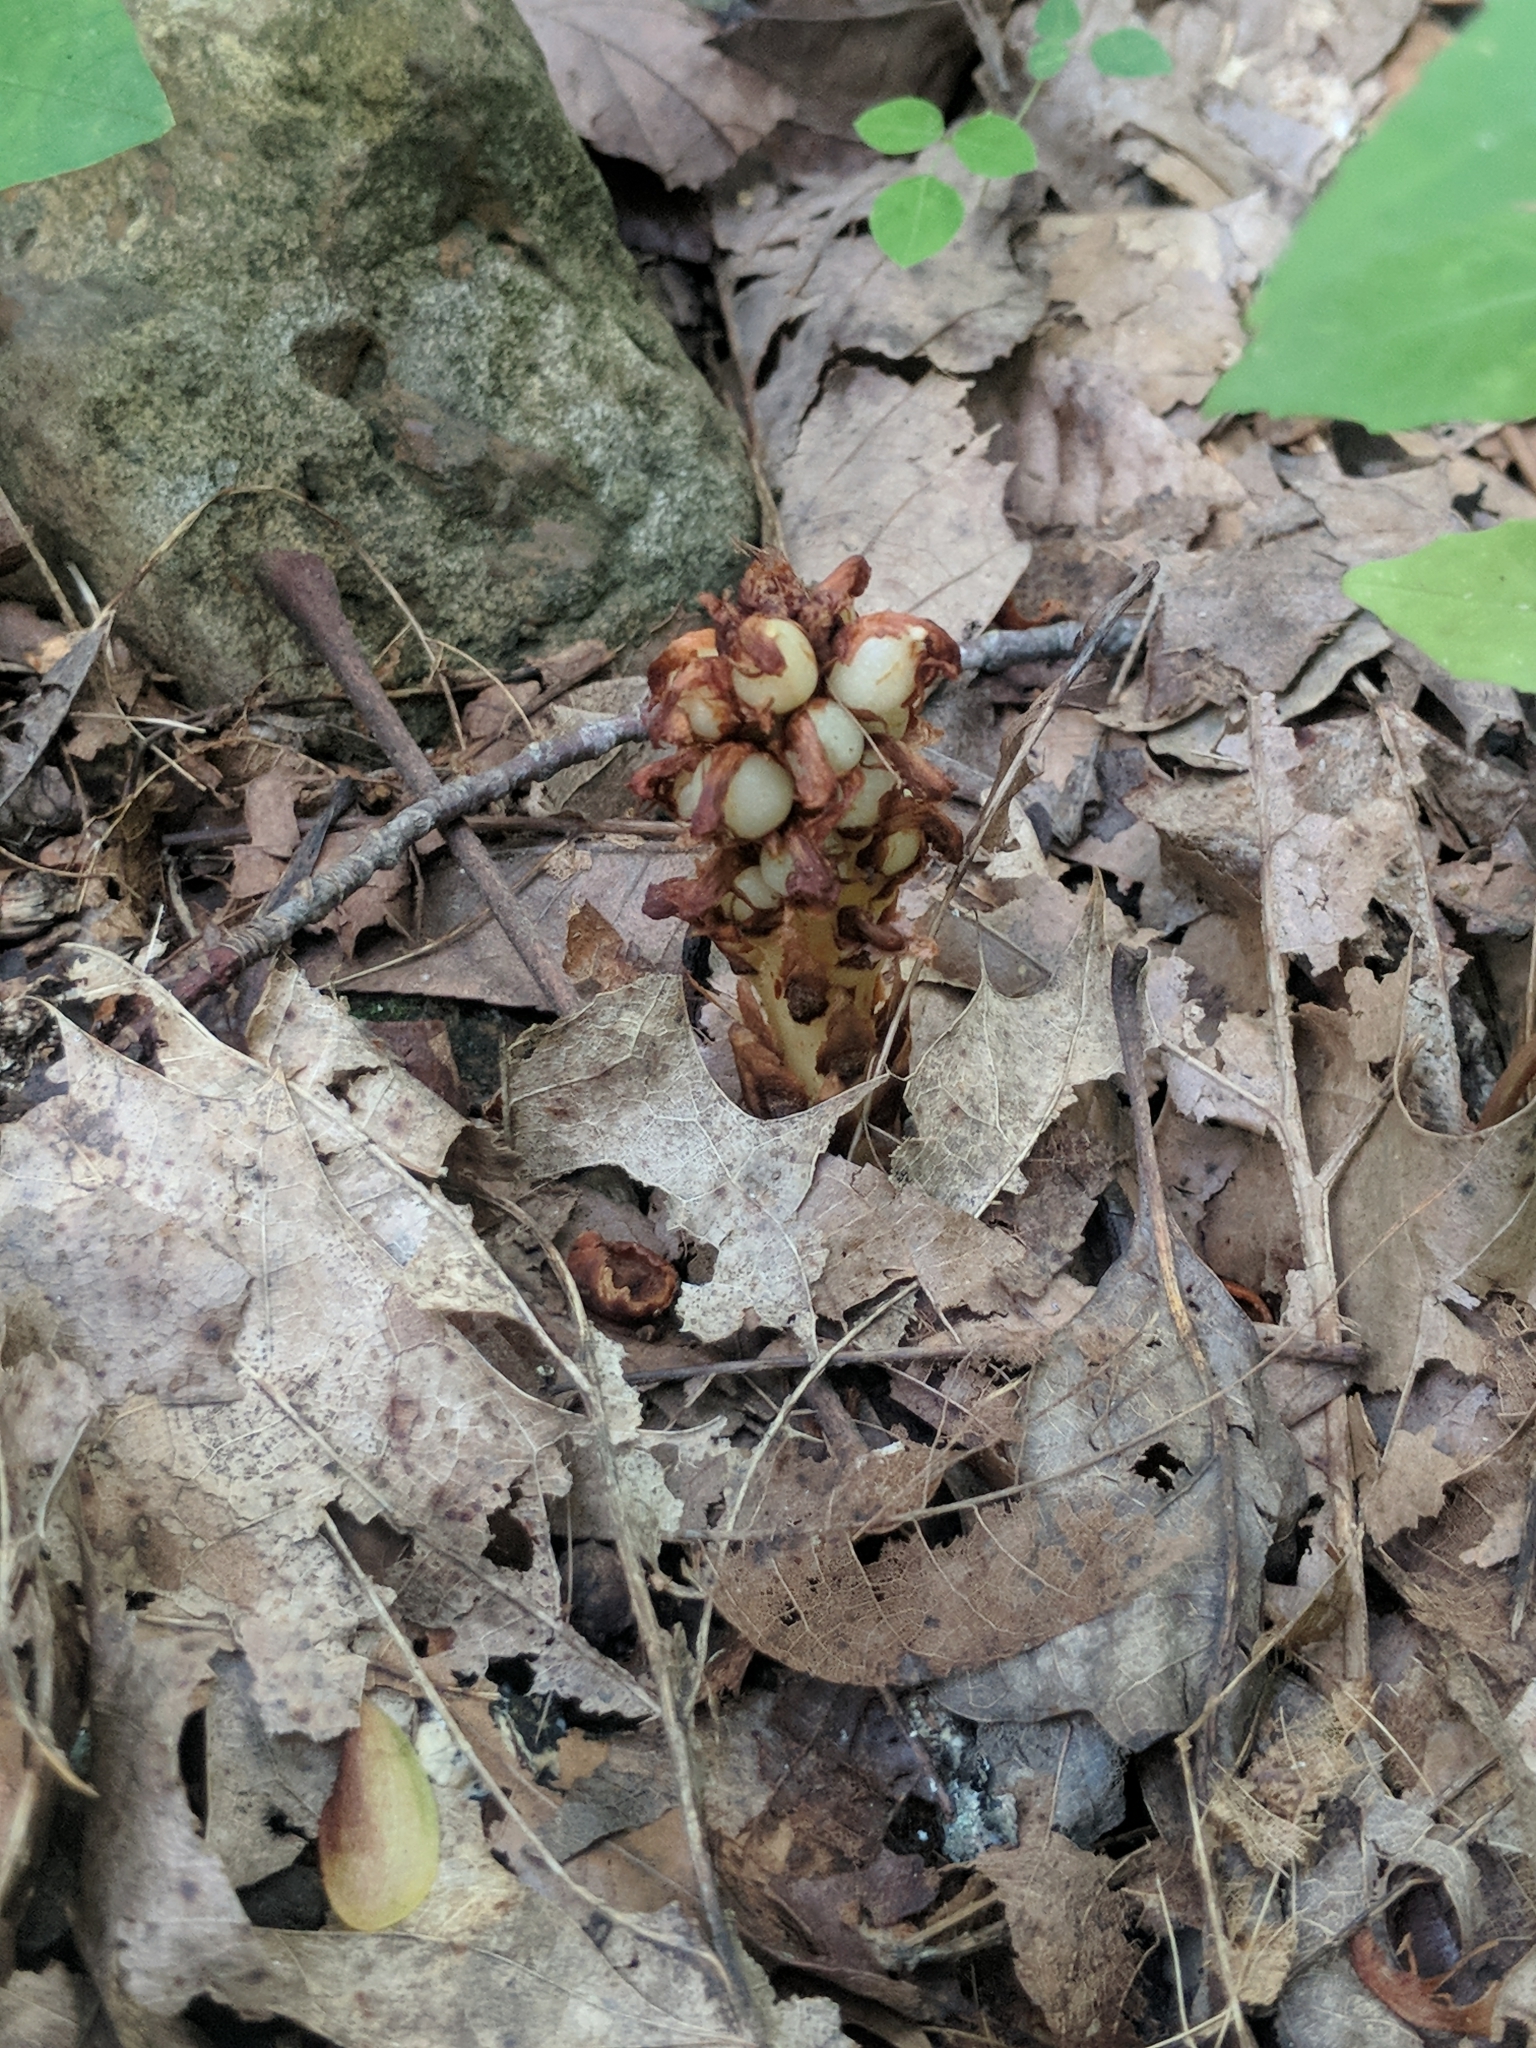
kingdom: Plantae
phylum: Tracheophyta
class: Magnoliopsida
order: Lamiales
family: Orobanchaceae
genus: Conopholis
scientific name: Conopholis americana
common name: American cancer-root
